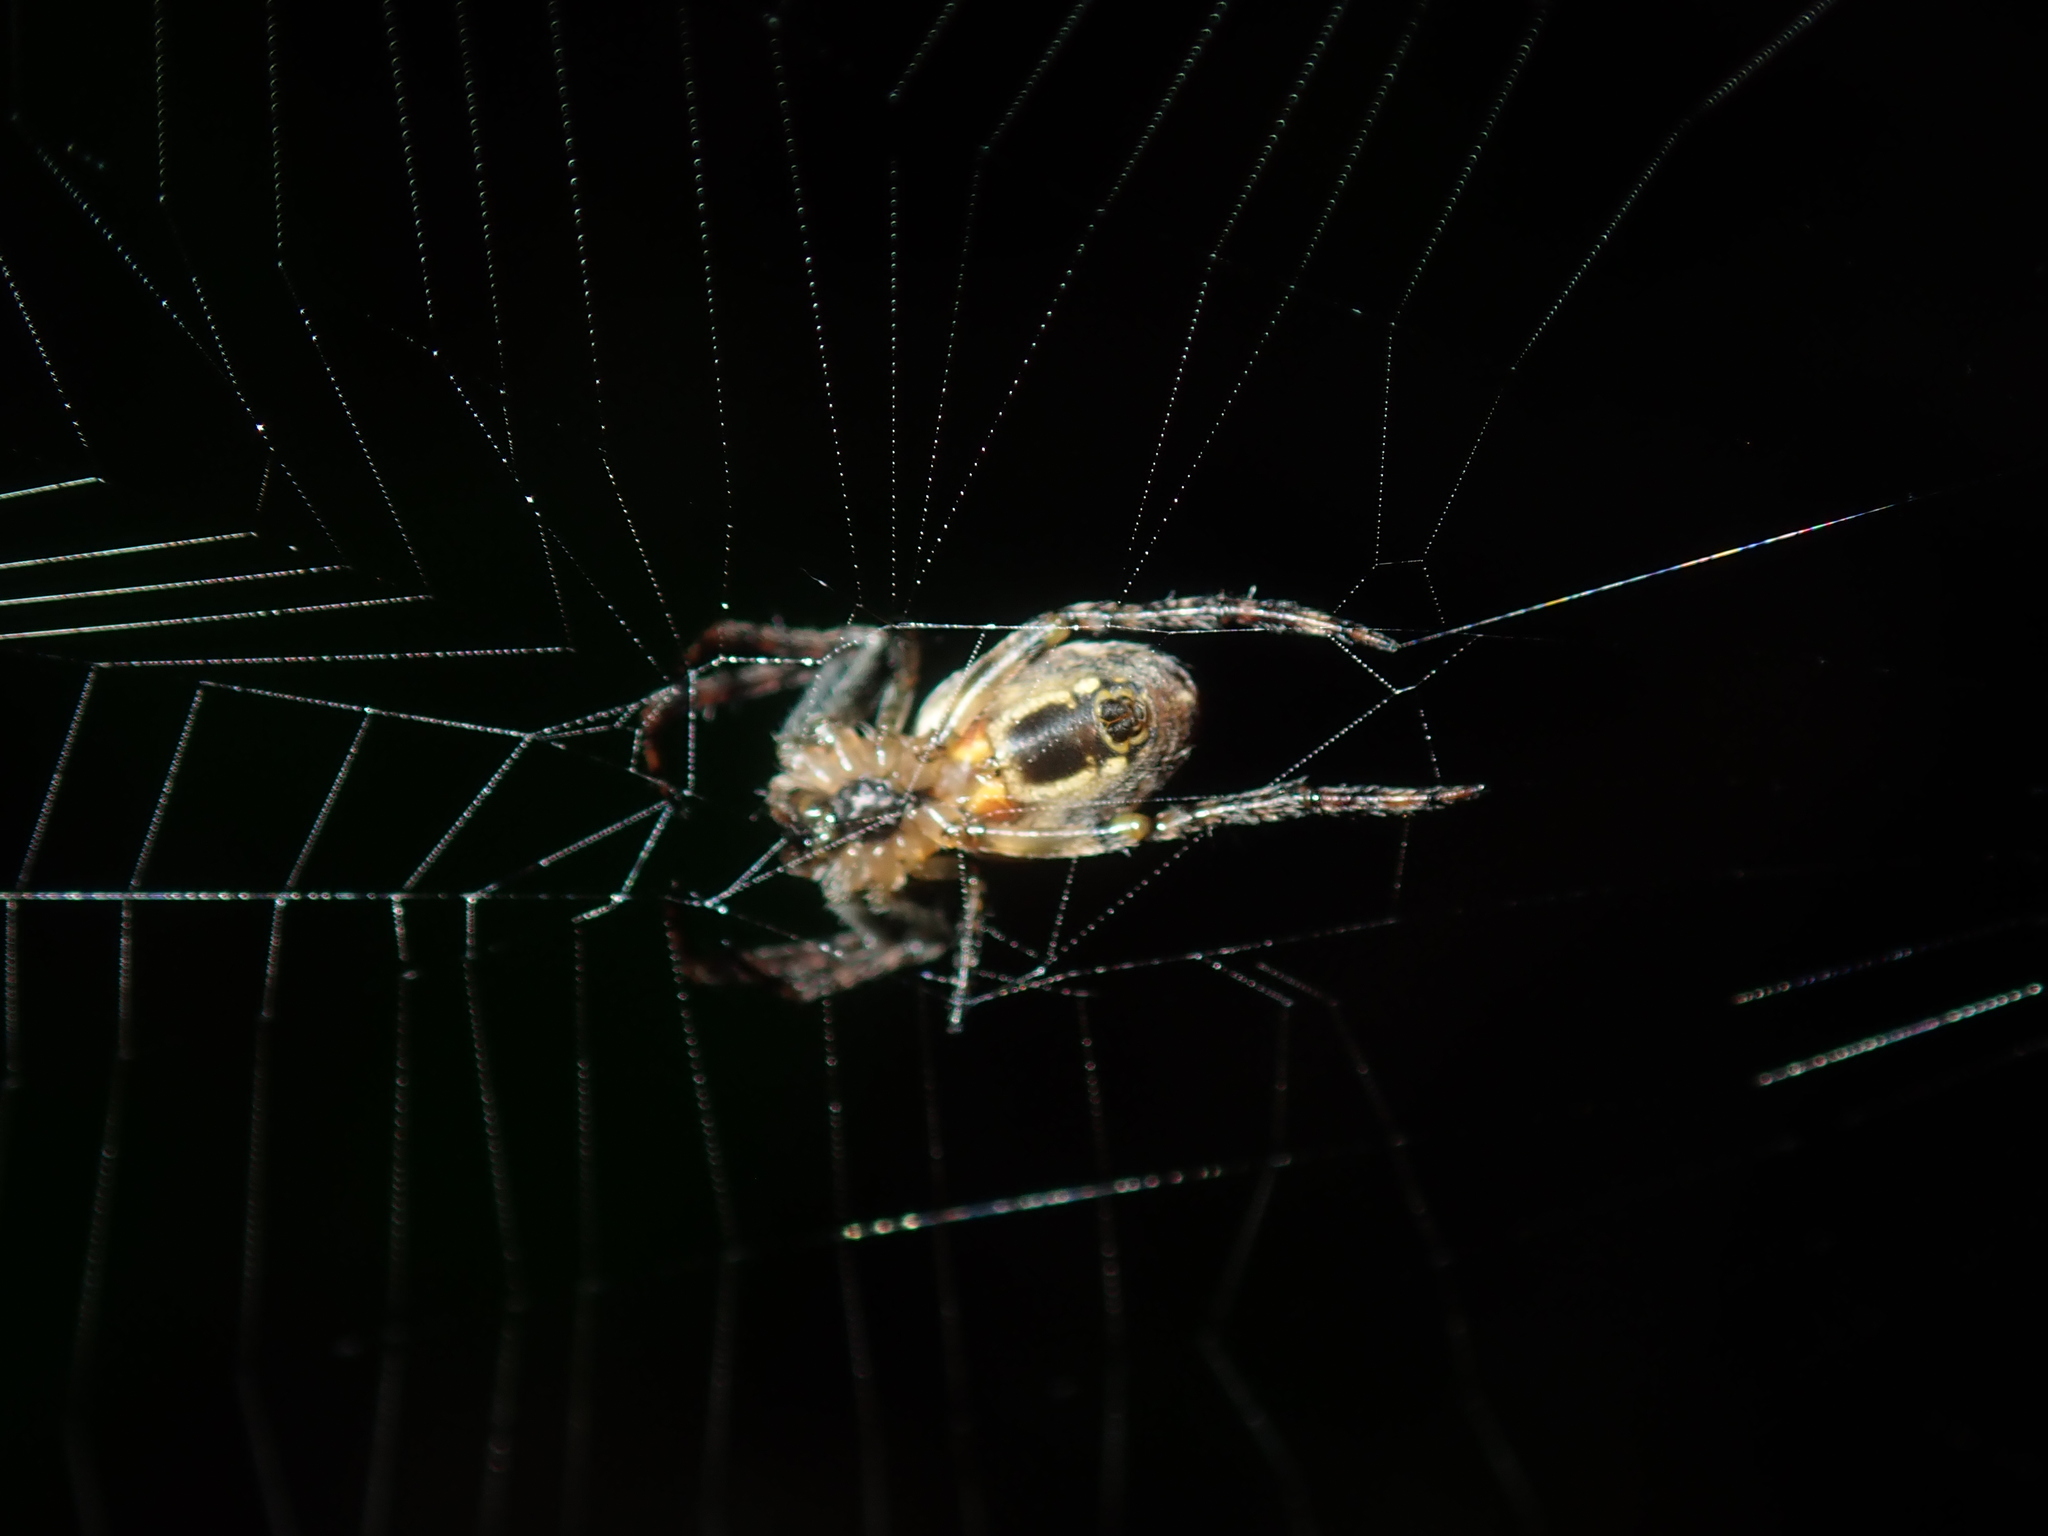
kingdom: Animalia
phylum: Arthropoda
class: Arachnida
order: Araneae
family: Araneidae
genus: Plebs
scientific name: Plebs eburnus
